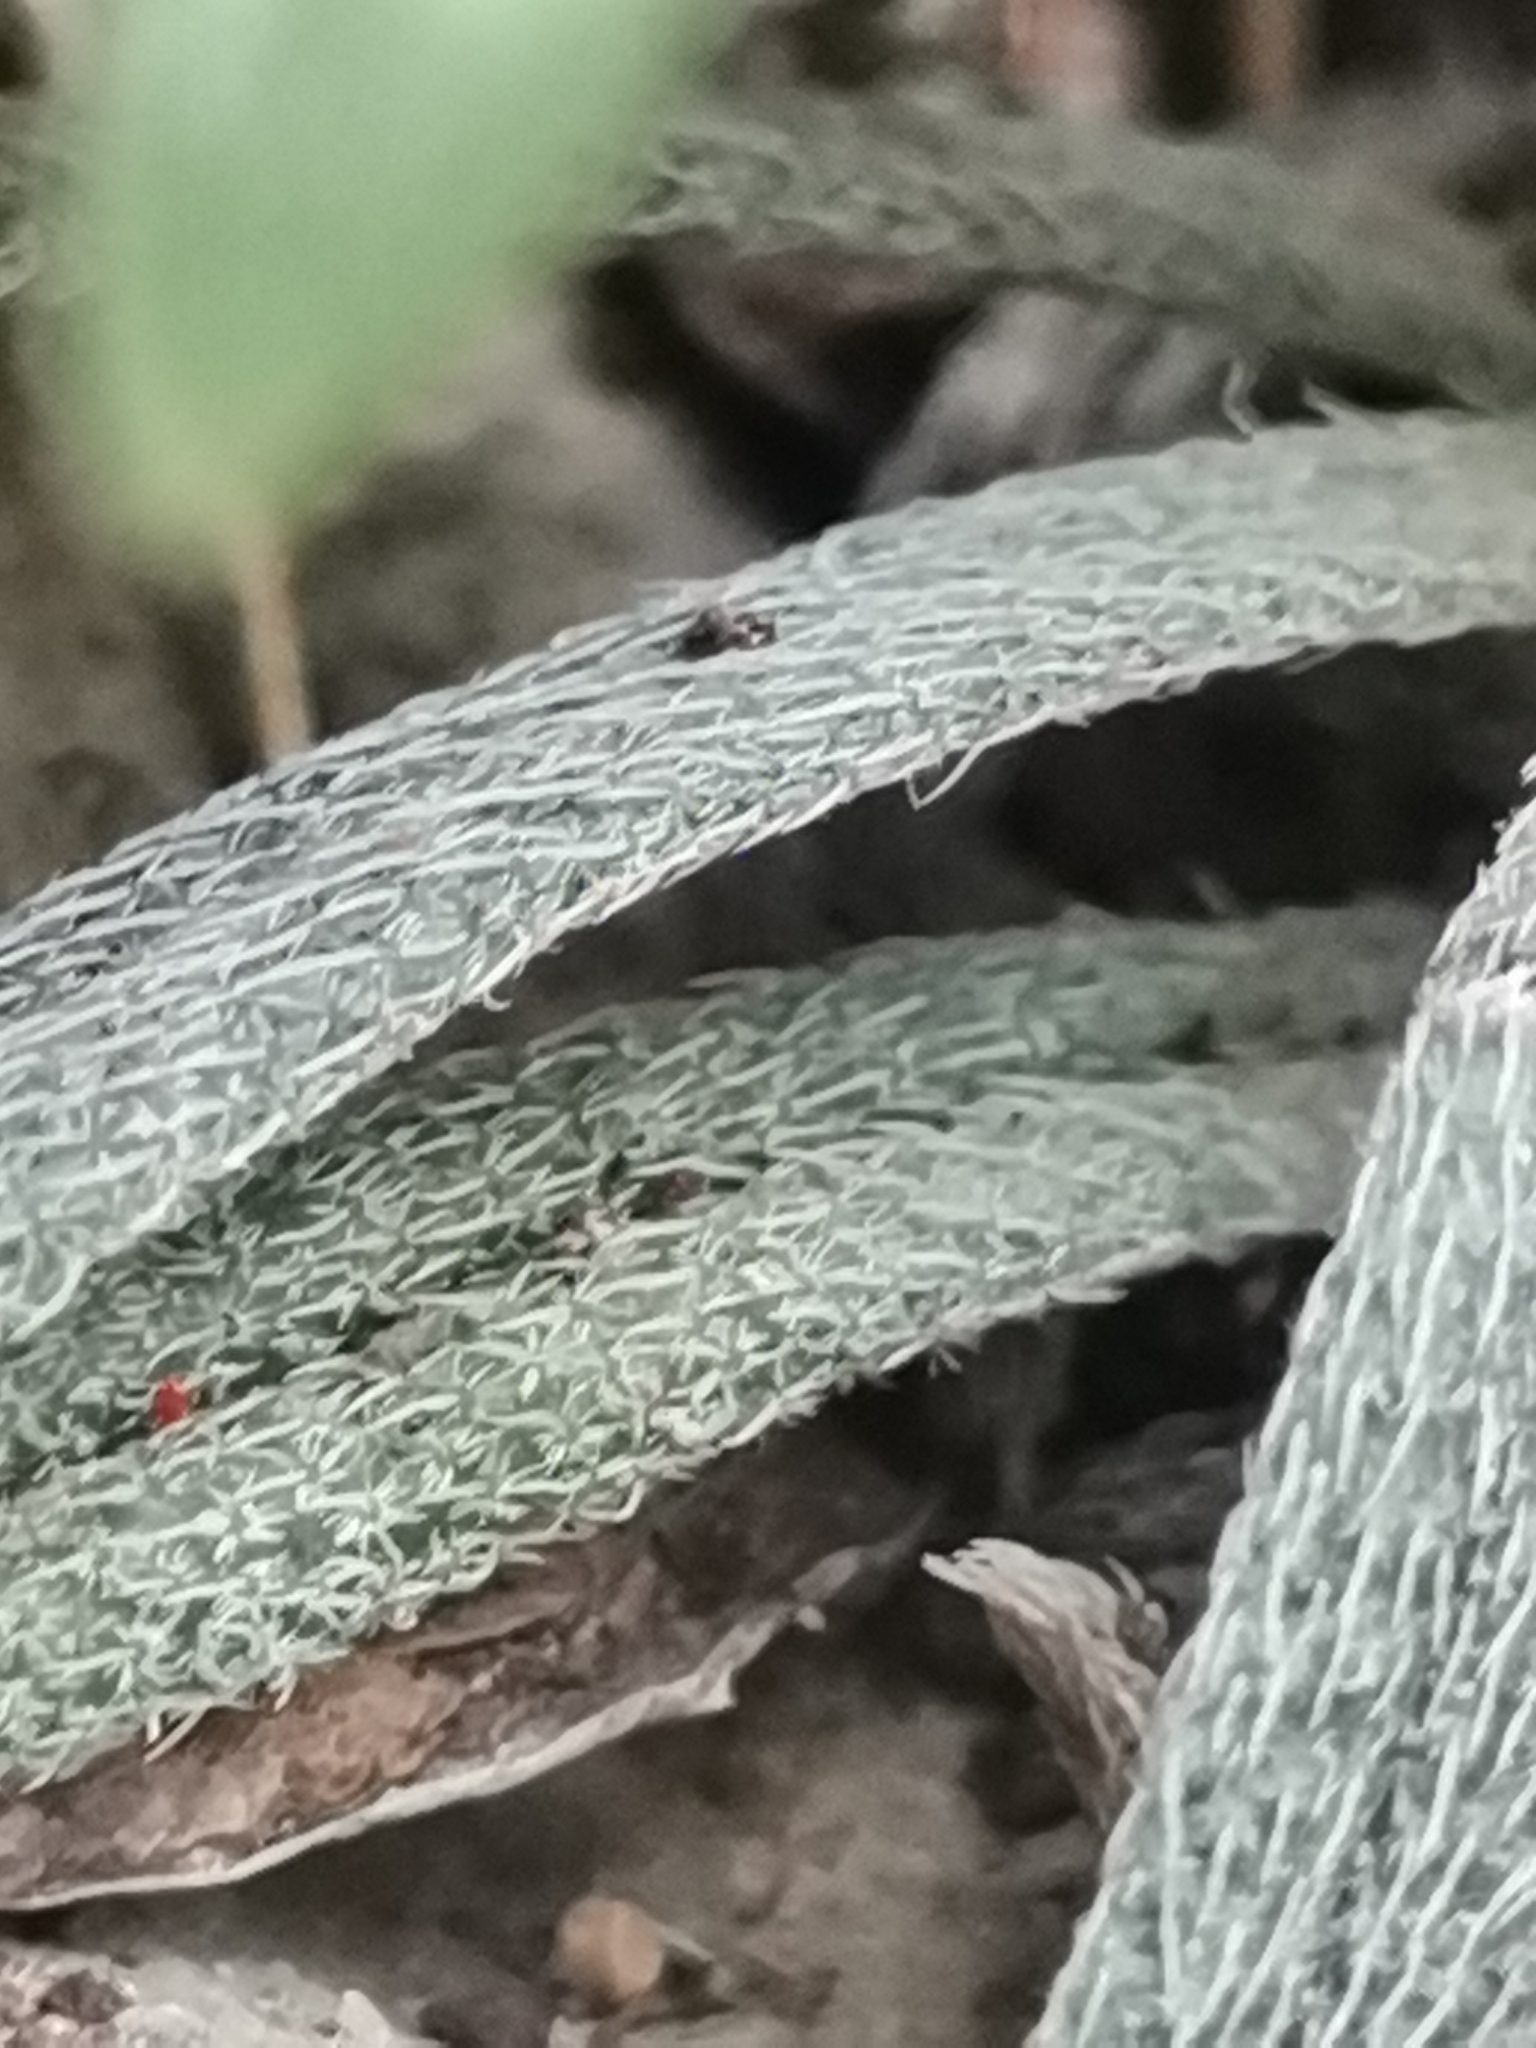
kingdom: Plantae
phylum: Tracheophyta
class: Magnoliopsida
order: Boraginales
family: Boraginaceae
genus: Onosma
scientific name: Onosma echioides
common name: Goldendrop
